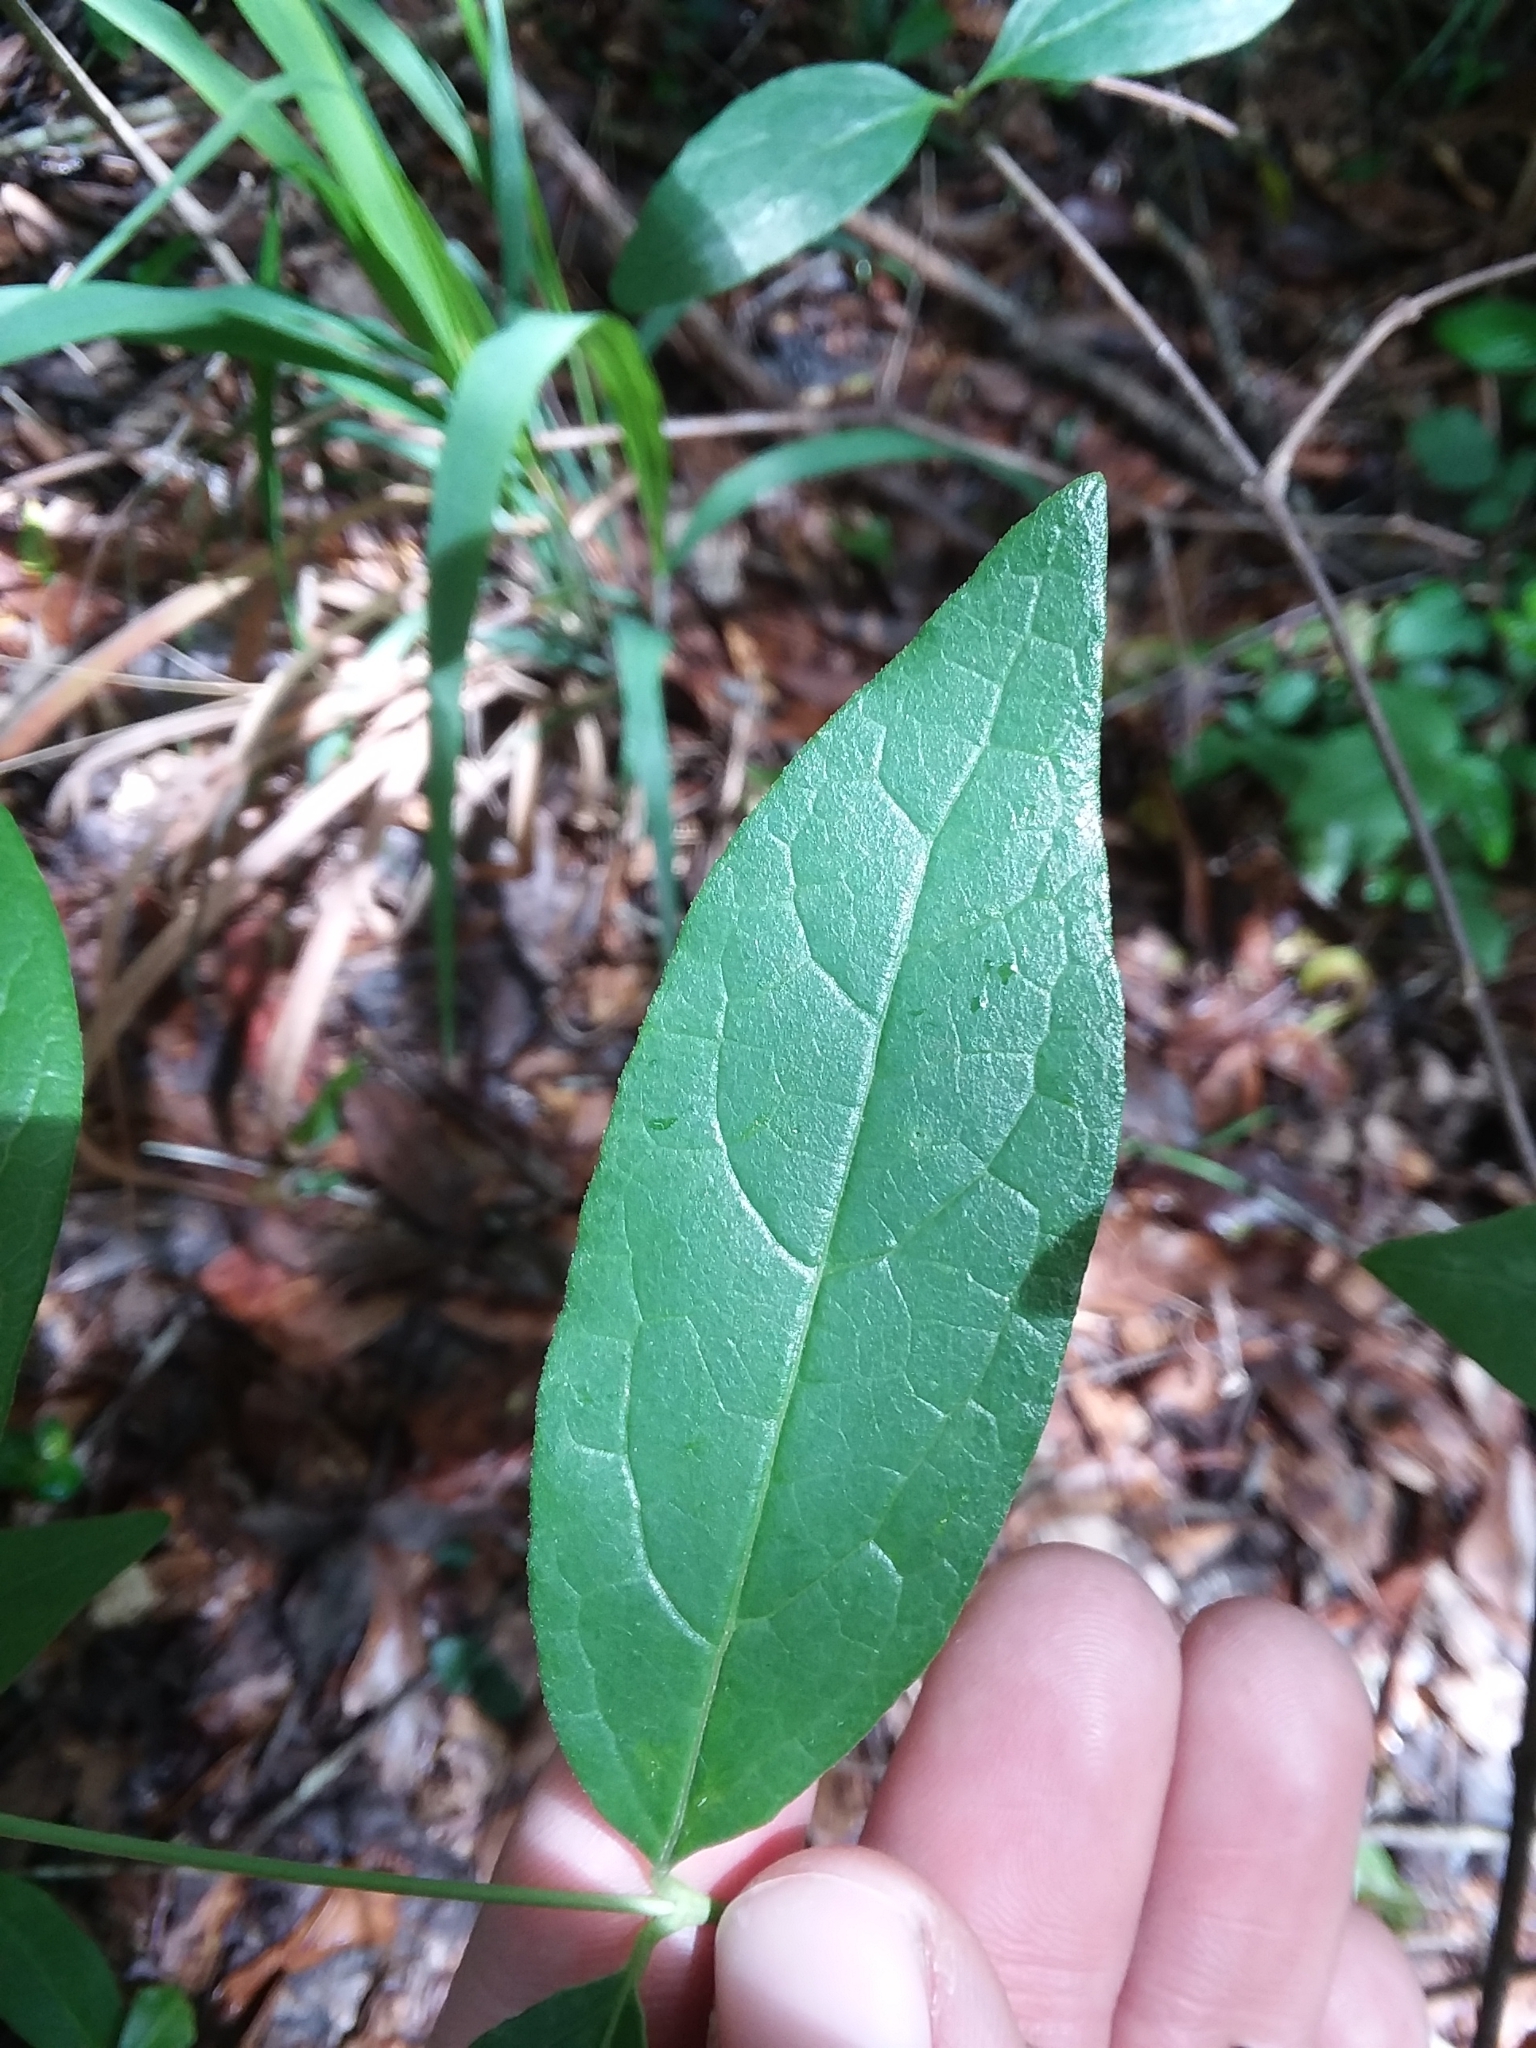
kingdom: Plantae
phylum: Tracheophyta
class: Magnoliopsida
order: Laurales
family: Calycanthaceae
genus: Calycanthus
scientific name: Calycanthus floridus
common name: Carolina-allspice
